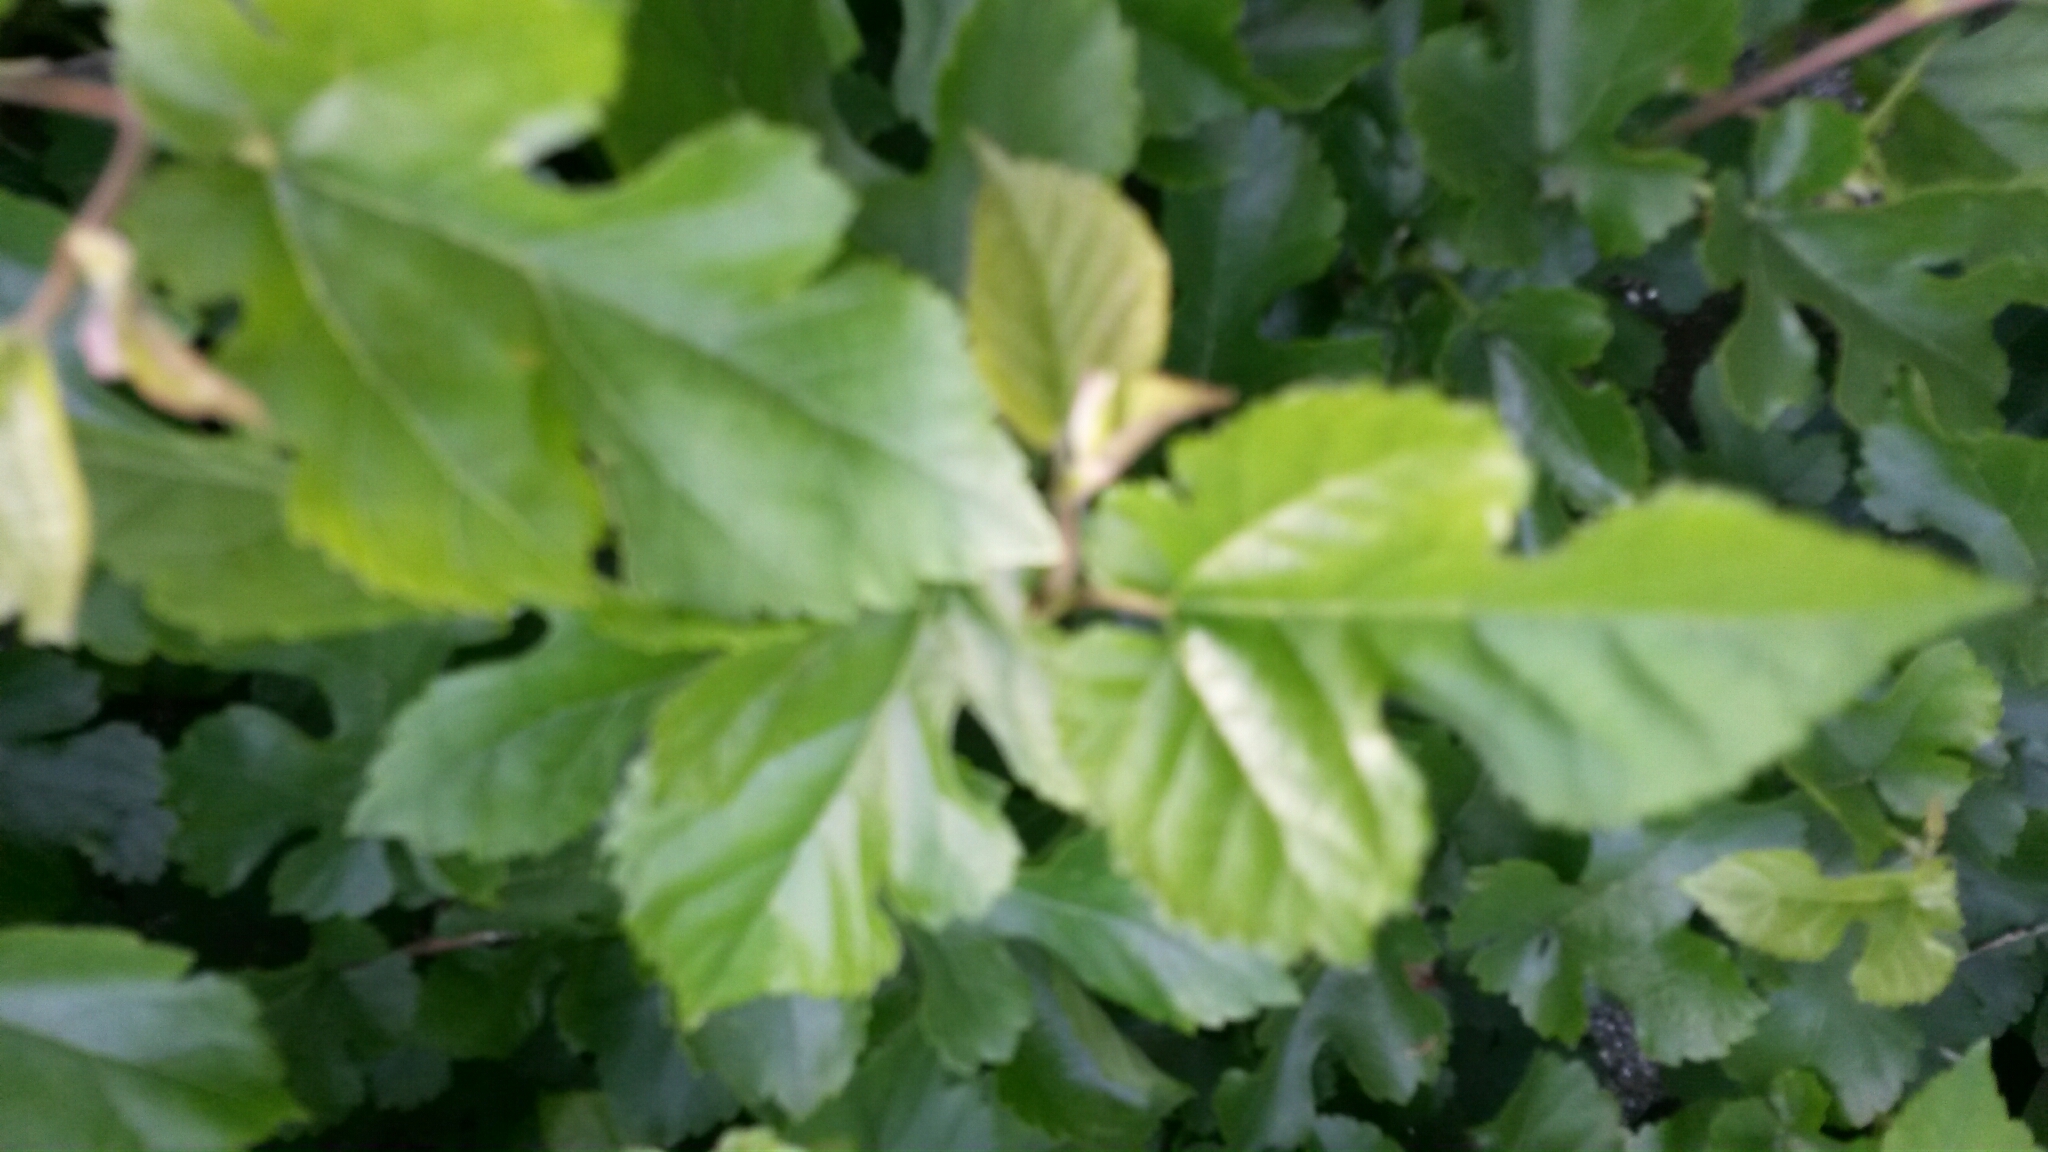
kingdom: Plantae
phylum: Tracheophyta
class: Magnoliopsida
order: Rosales
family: Moraceae
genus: Morus
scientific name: Morus alba
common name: White mulberry
